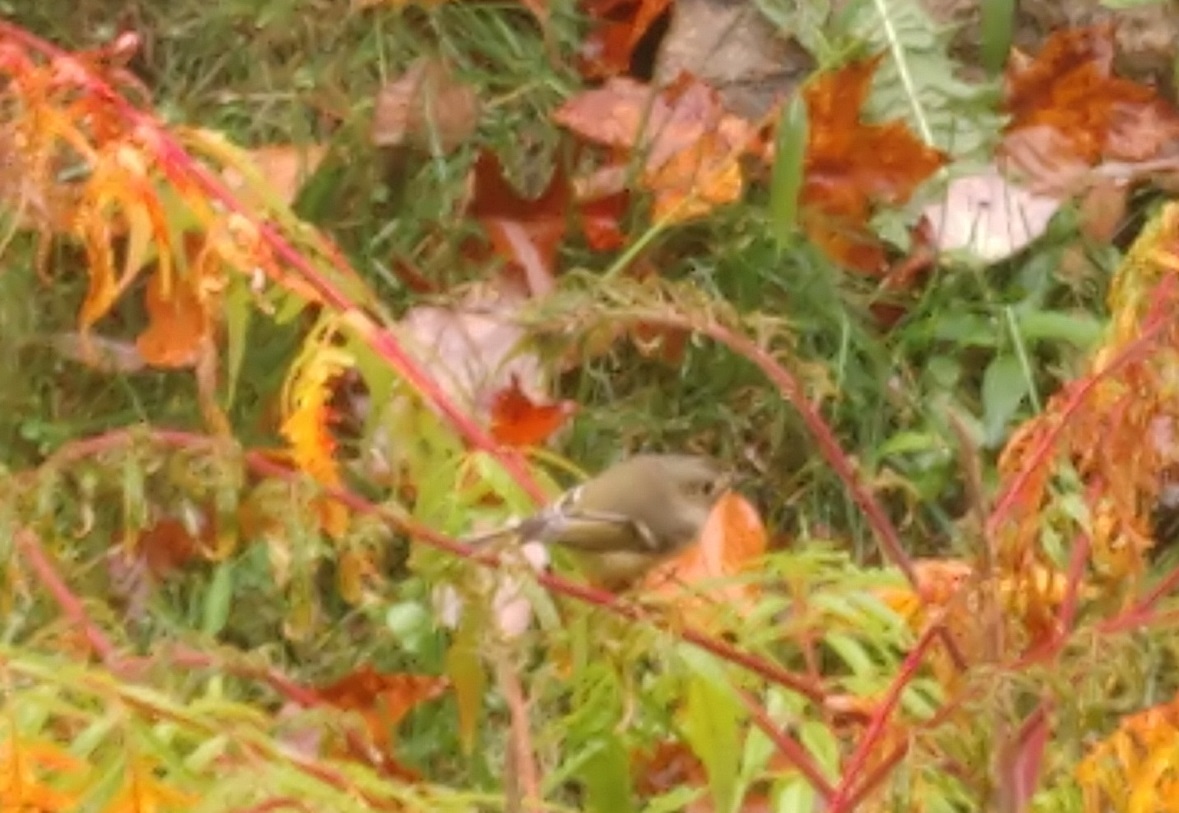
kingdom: Animalia
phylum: Chordata
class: Aves
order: Passeriformes
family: Regulidae
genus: Regulus
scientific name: Regulus calendula
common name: Ruby-crowned kinglet
